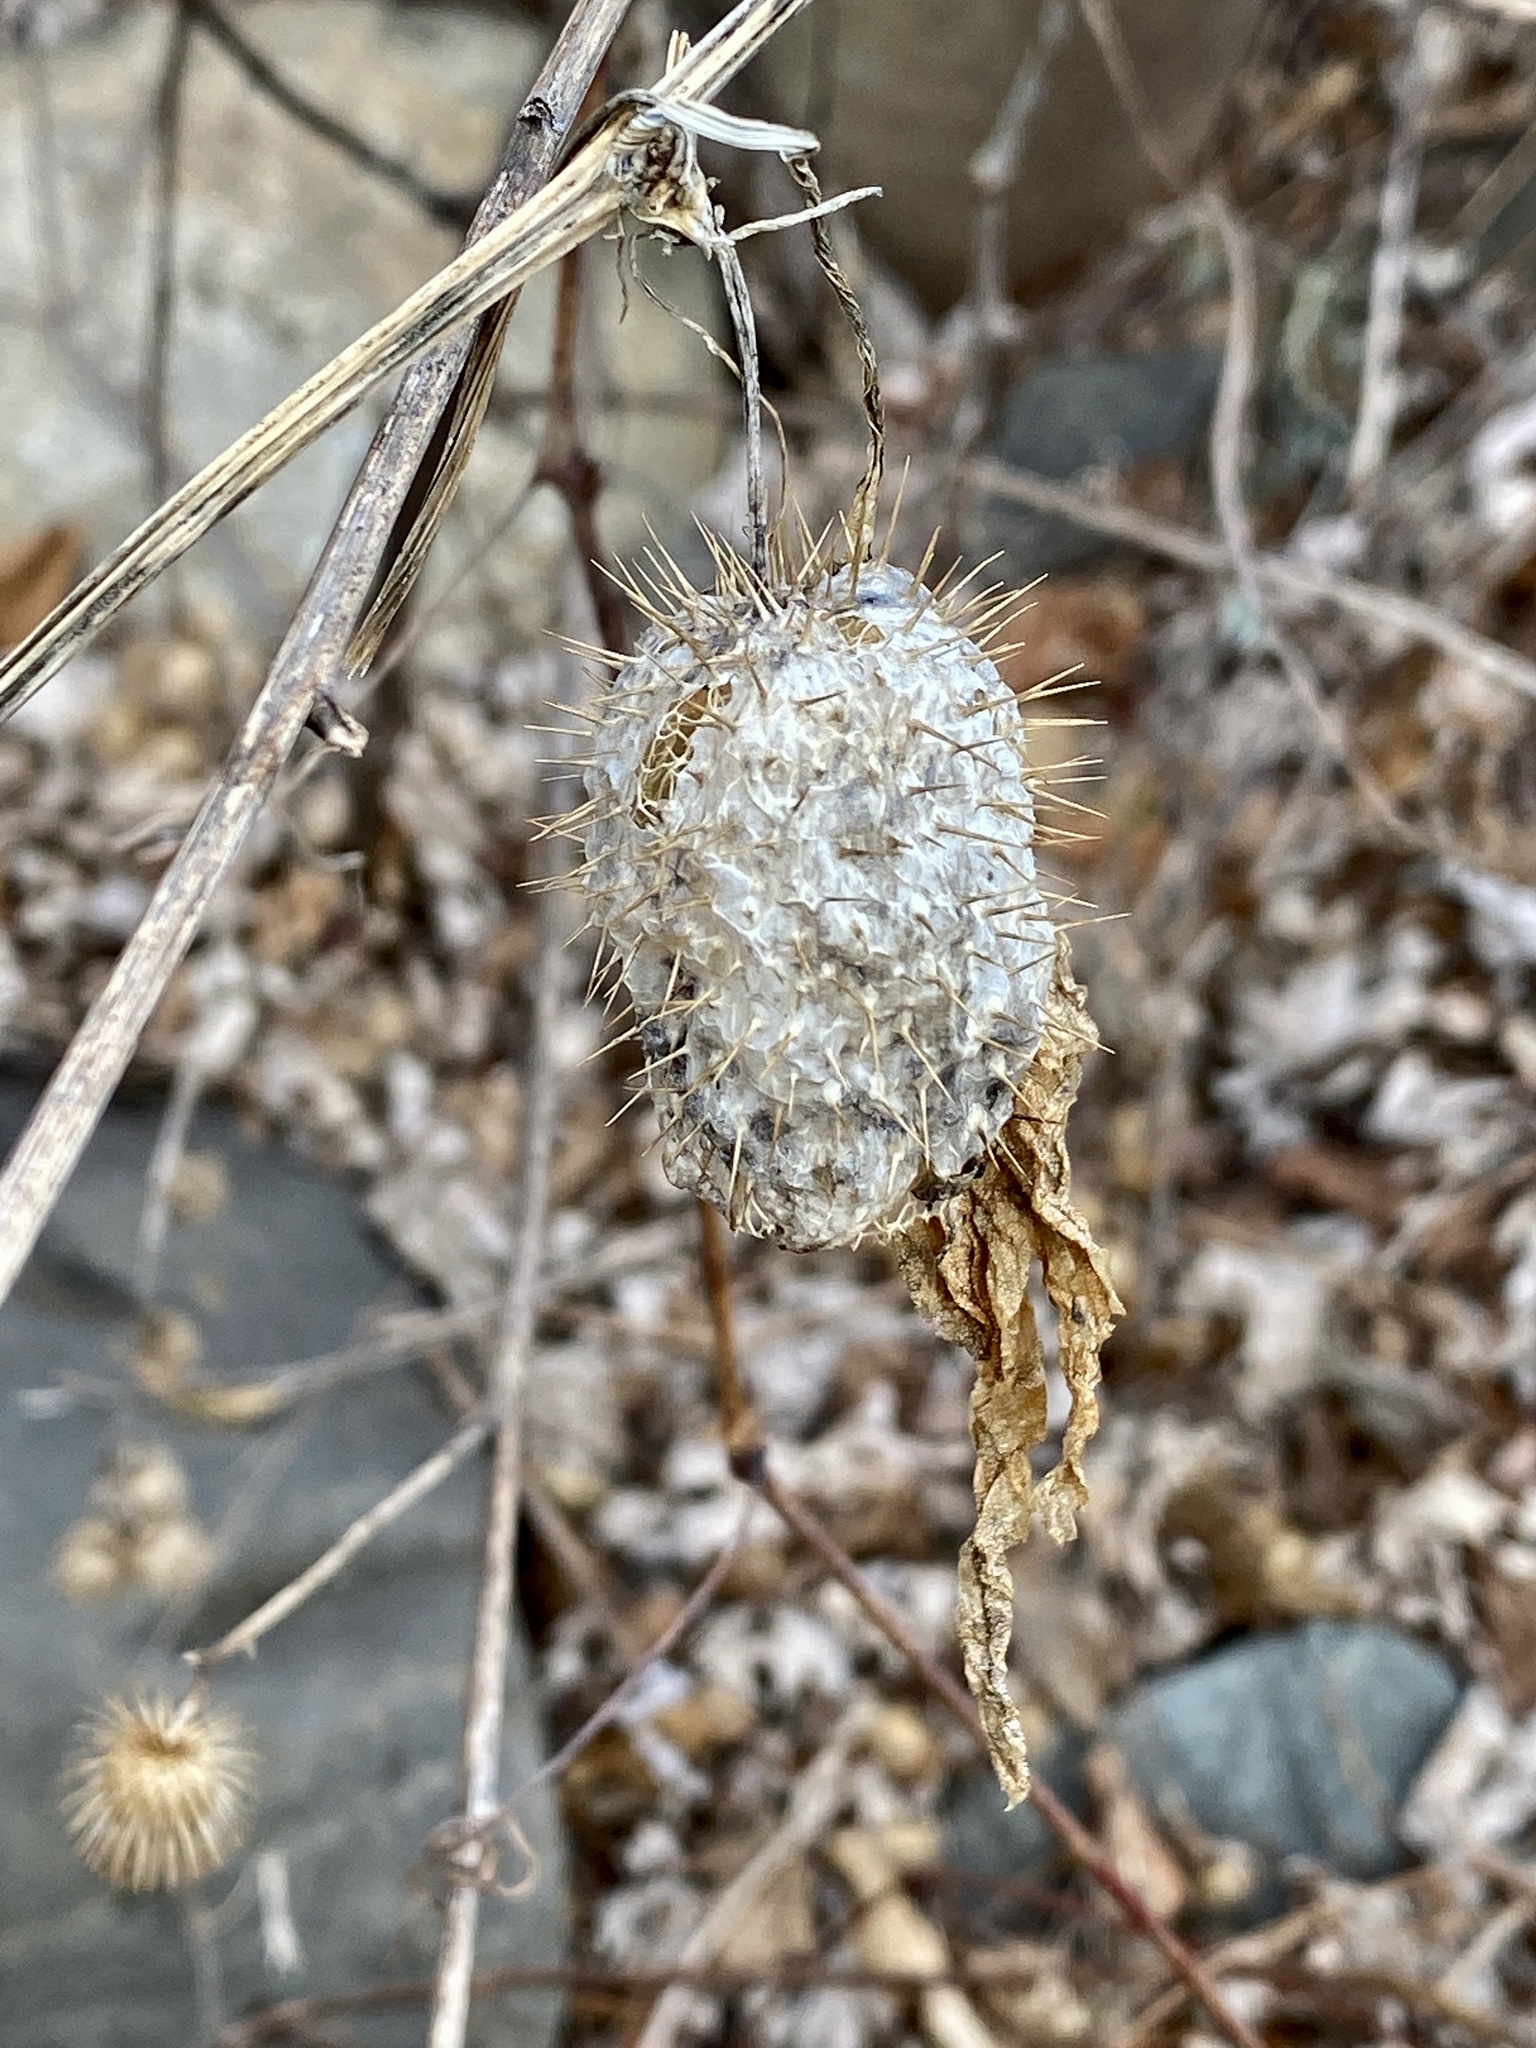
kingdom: Plantae
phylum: Tracheophyta
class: Magnoliopsida
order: Cucurbitales
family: Cucurbitaceae
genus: Echinocystis
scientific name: Echinocystis lobata
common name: Wild cucumber
